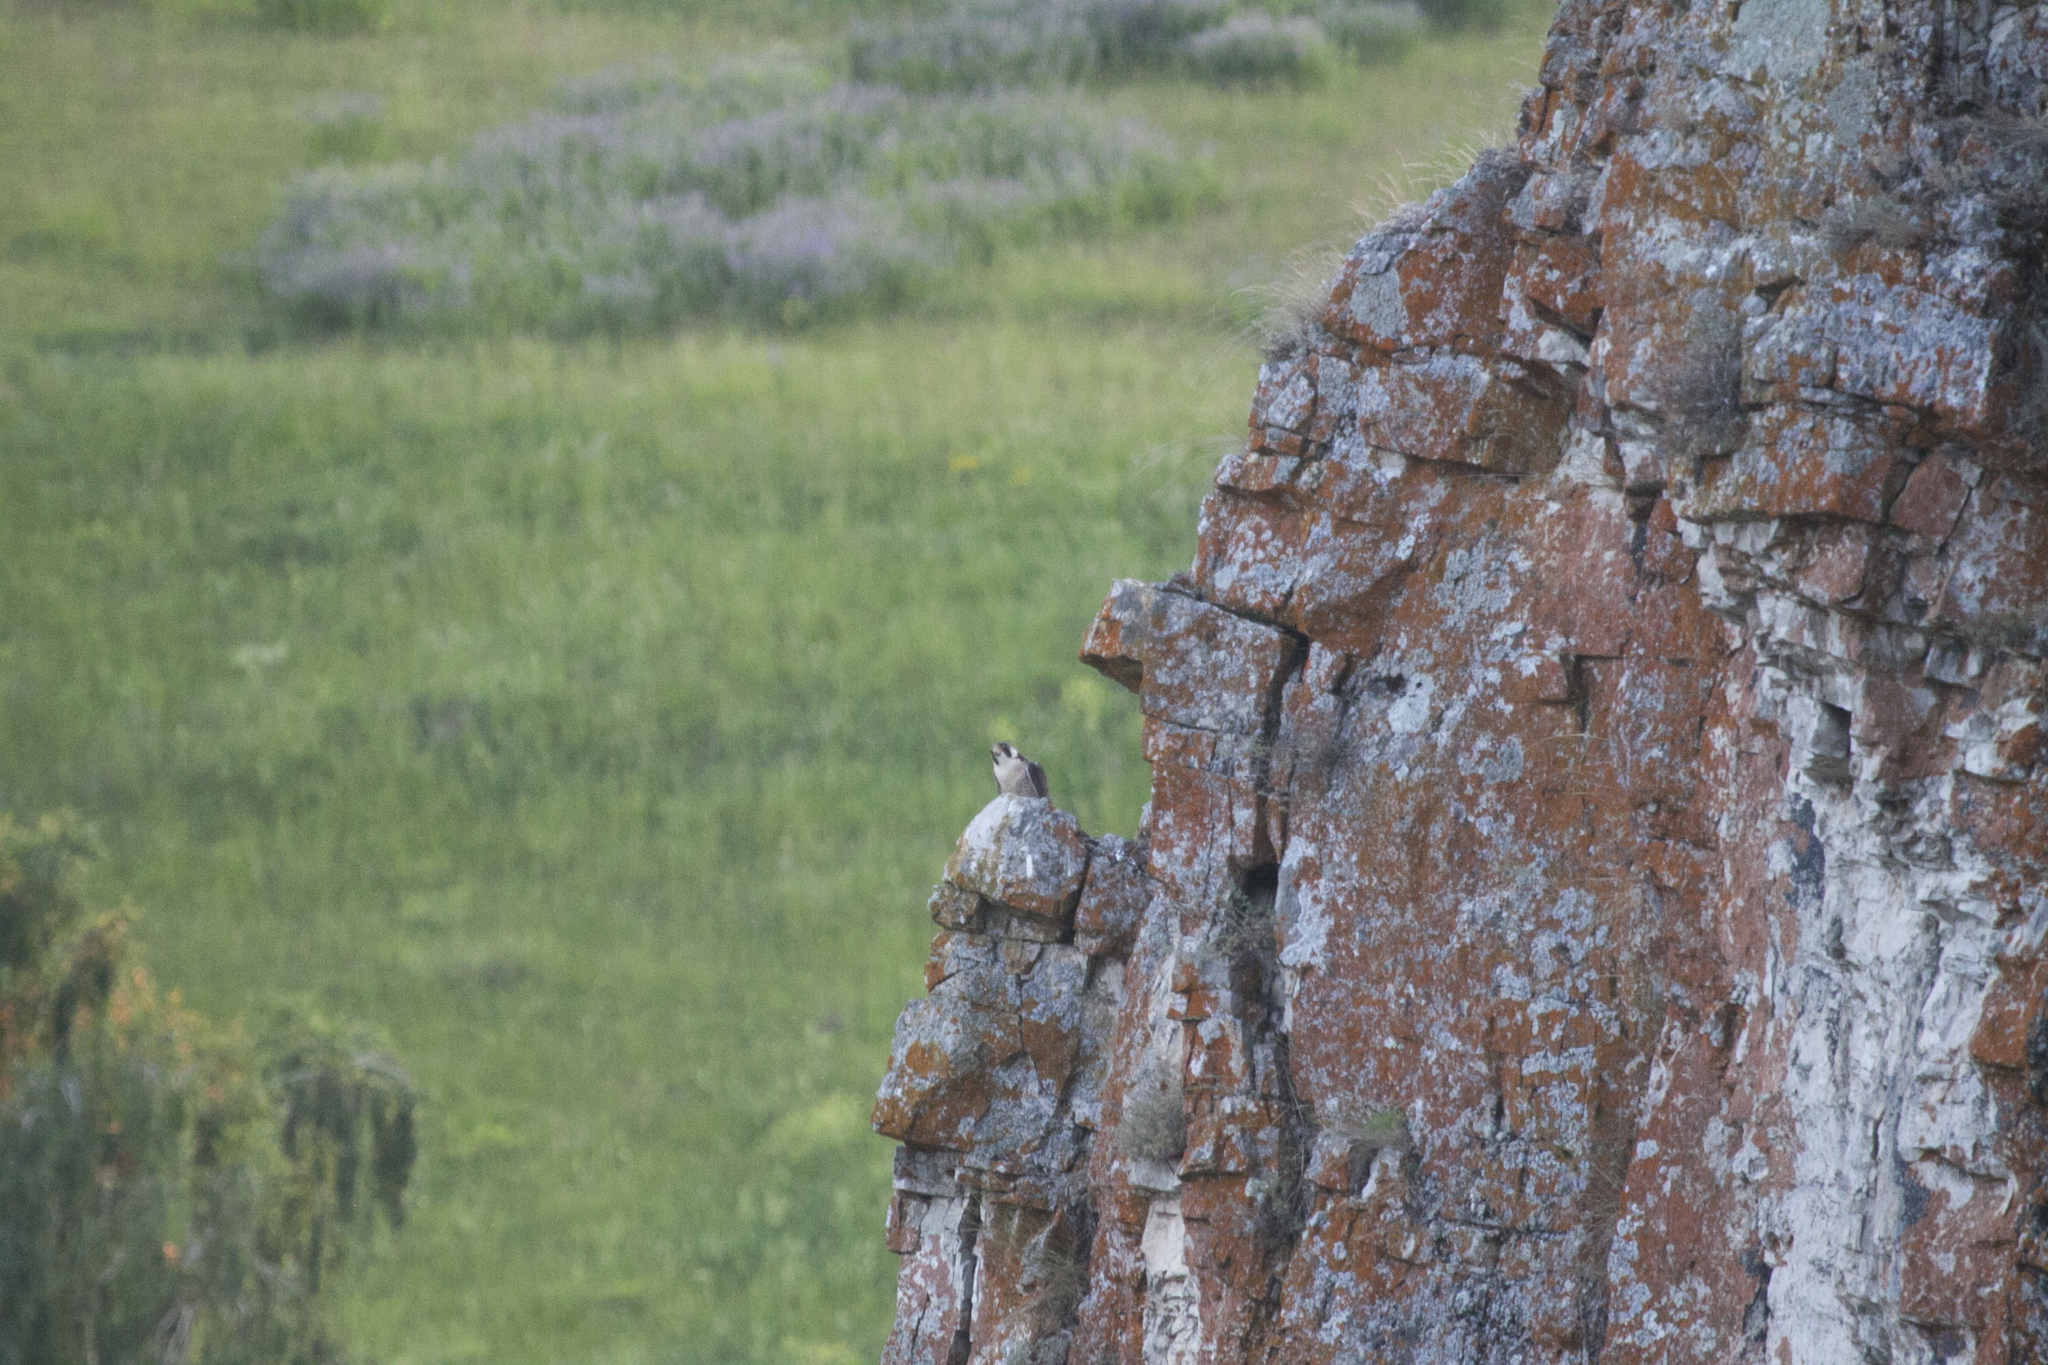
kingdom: Animalia
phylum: Chordata
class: Aves
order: Falconiformes
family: Falconidae
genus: Falco
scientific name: Falco peregrinus
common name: Peregrine falcon
